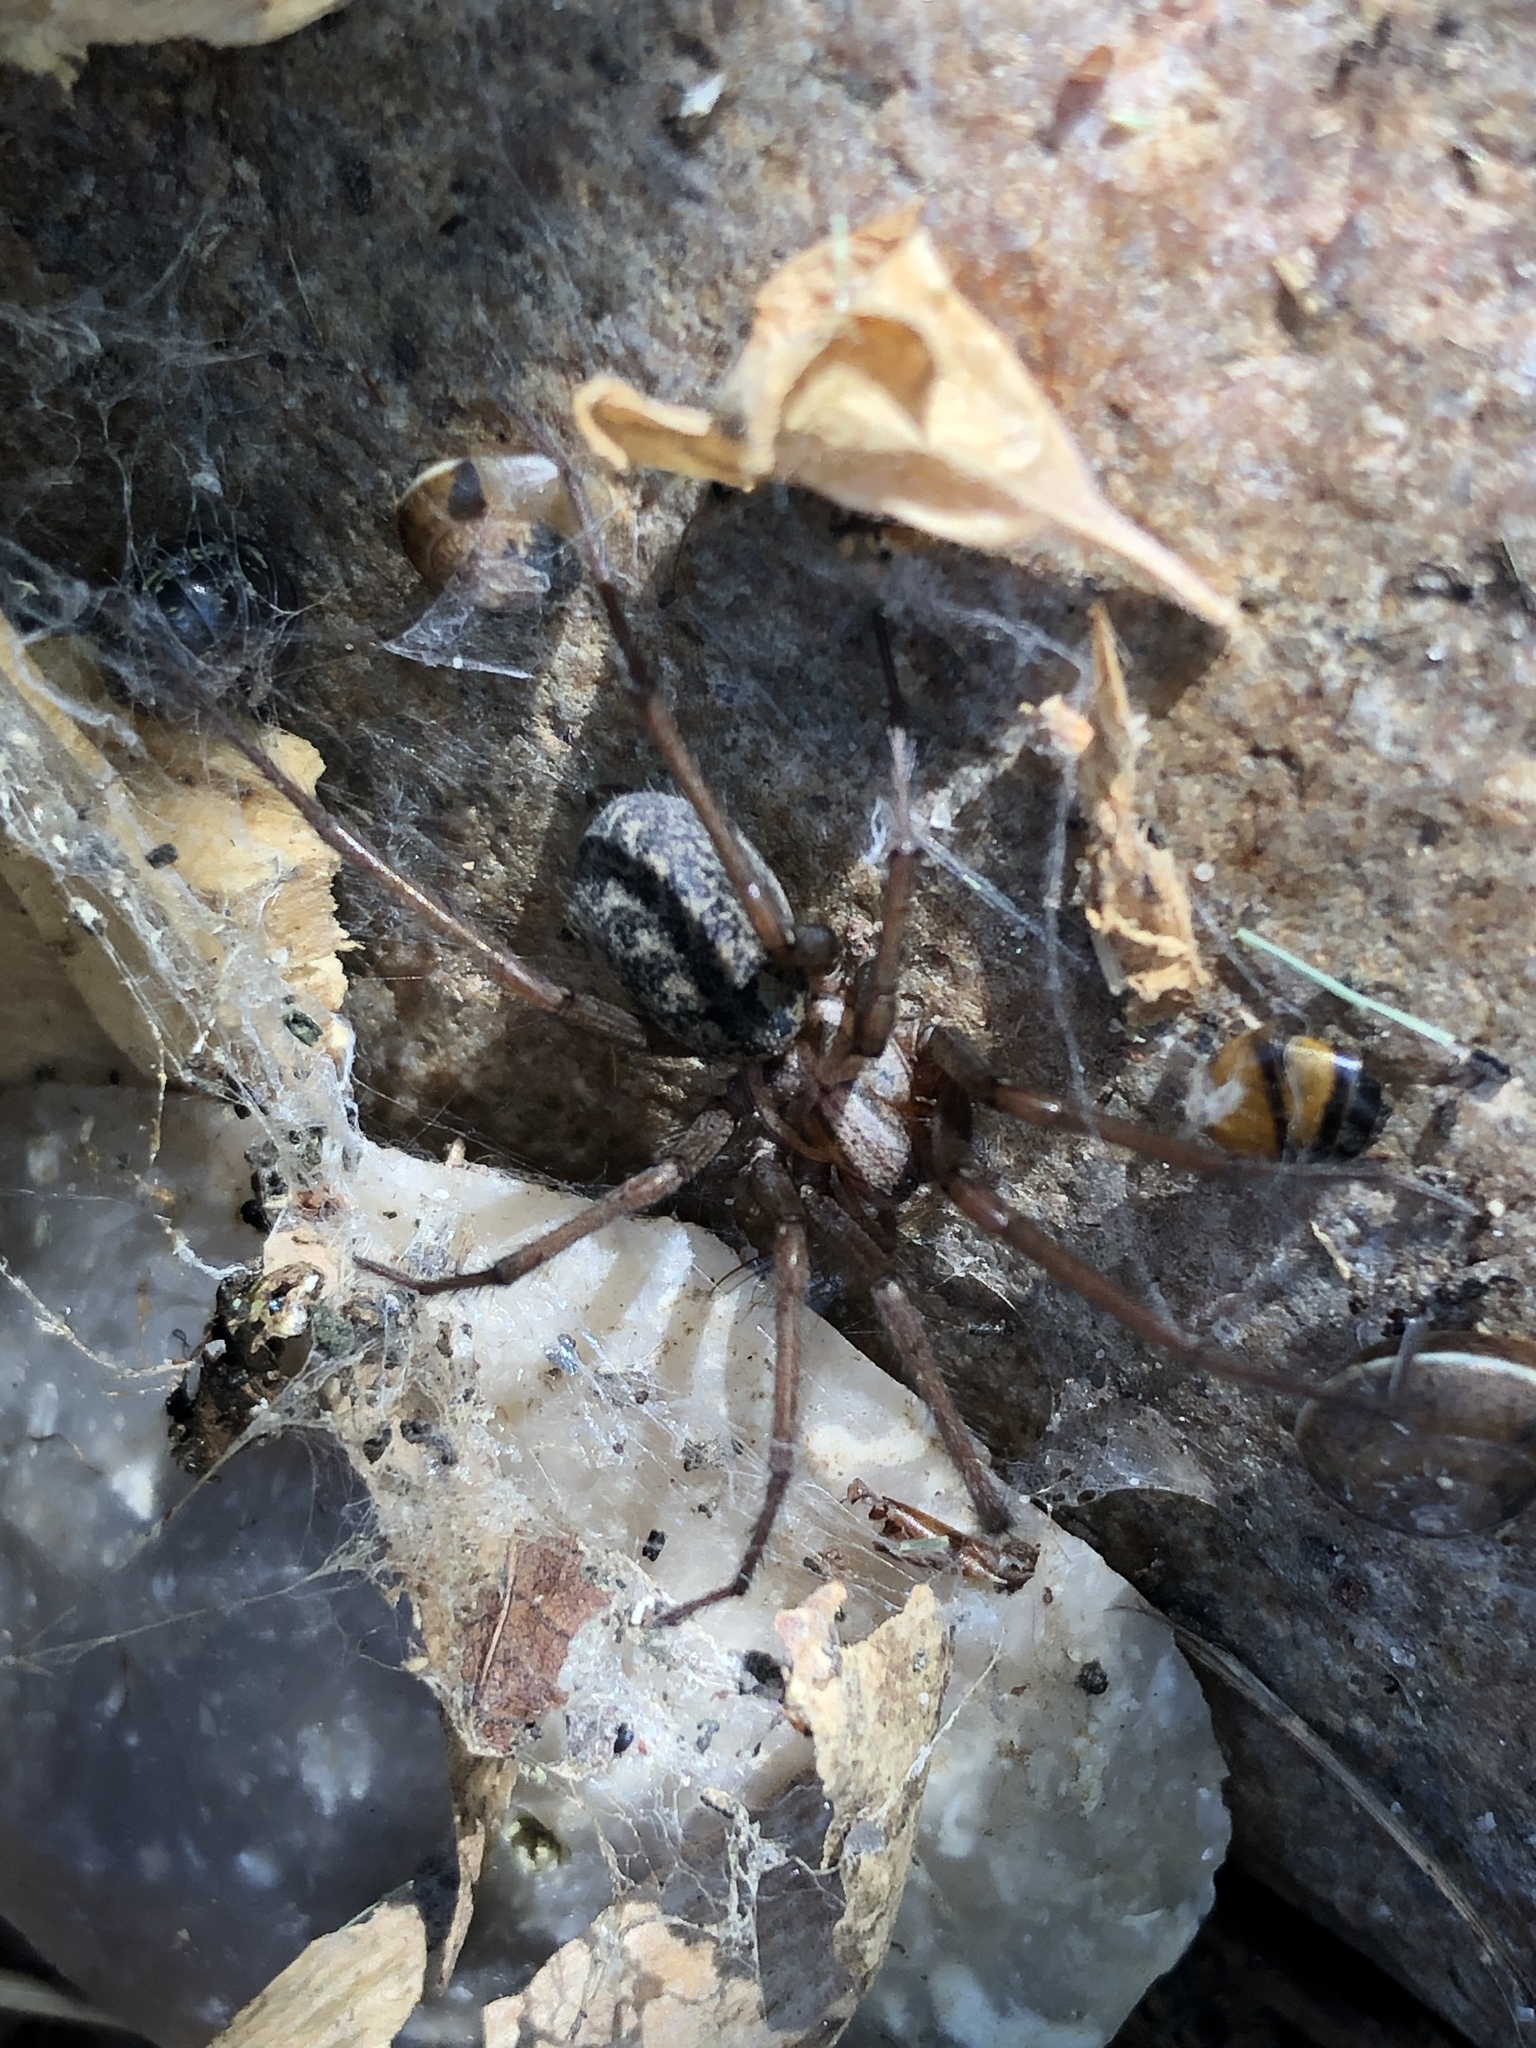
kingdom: Animalia
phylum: Arthropoda
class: Arachnida
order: Araneae
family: Agelenidae
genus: Eratigena
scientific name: Eratigena atrica
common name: Giant house spider
